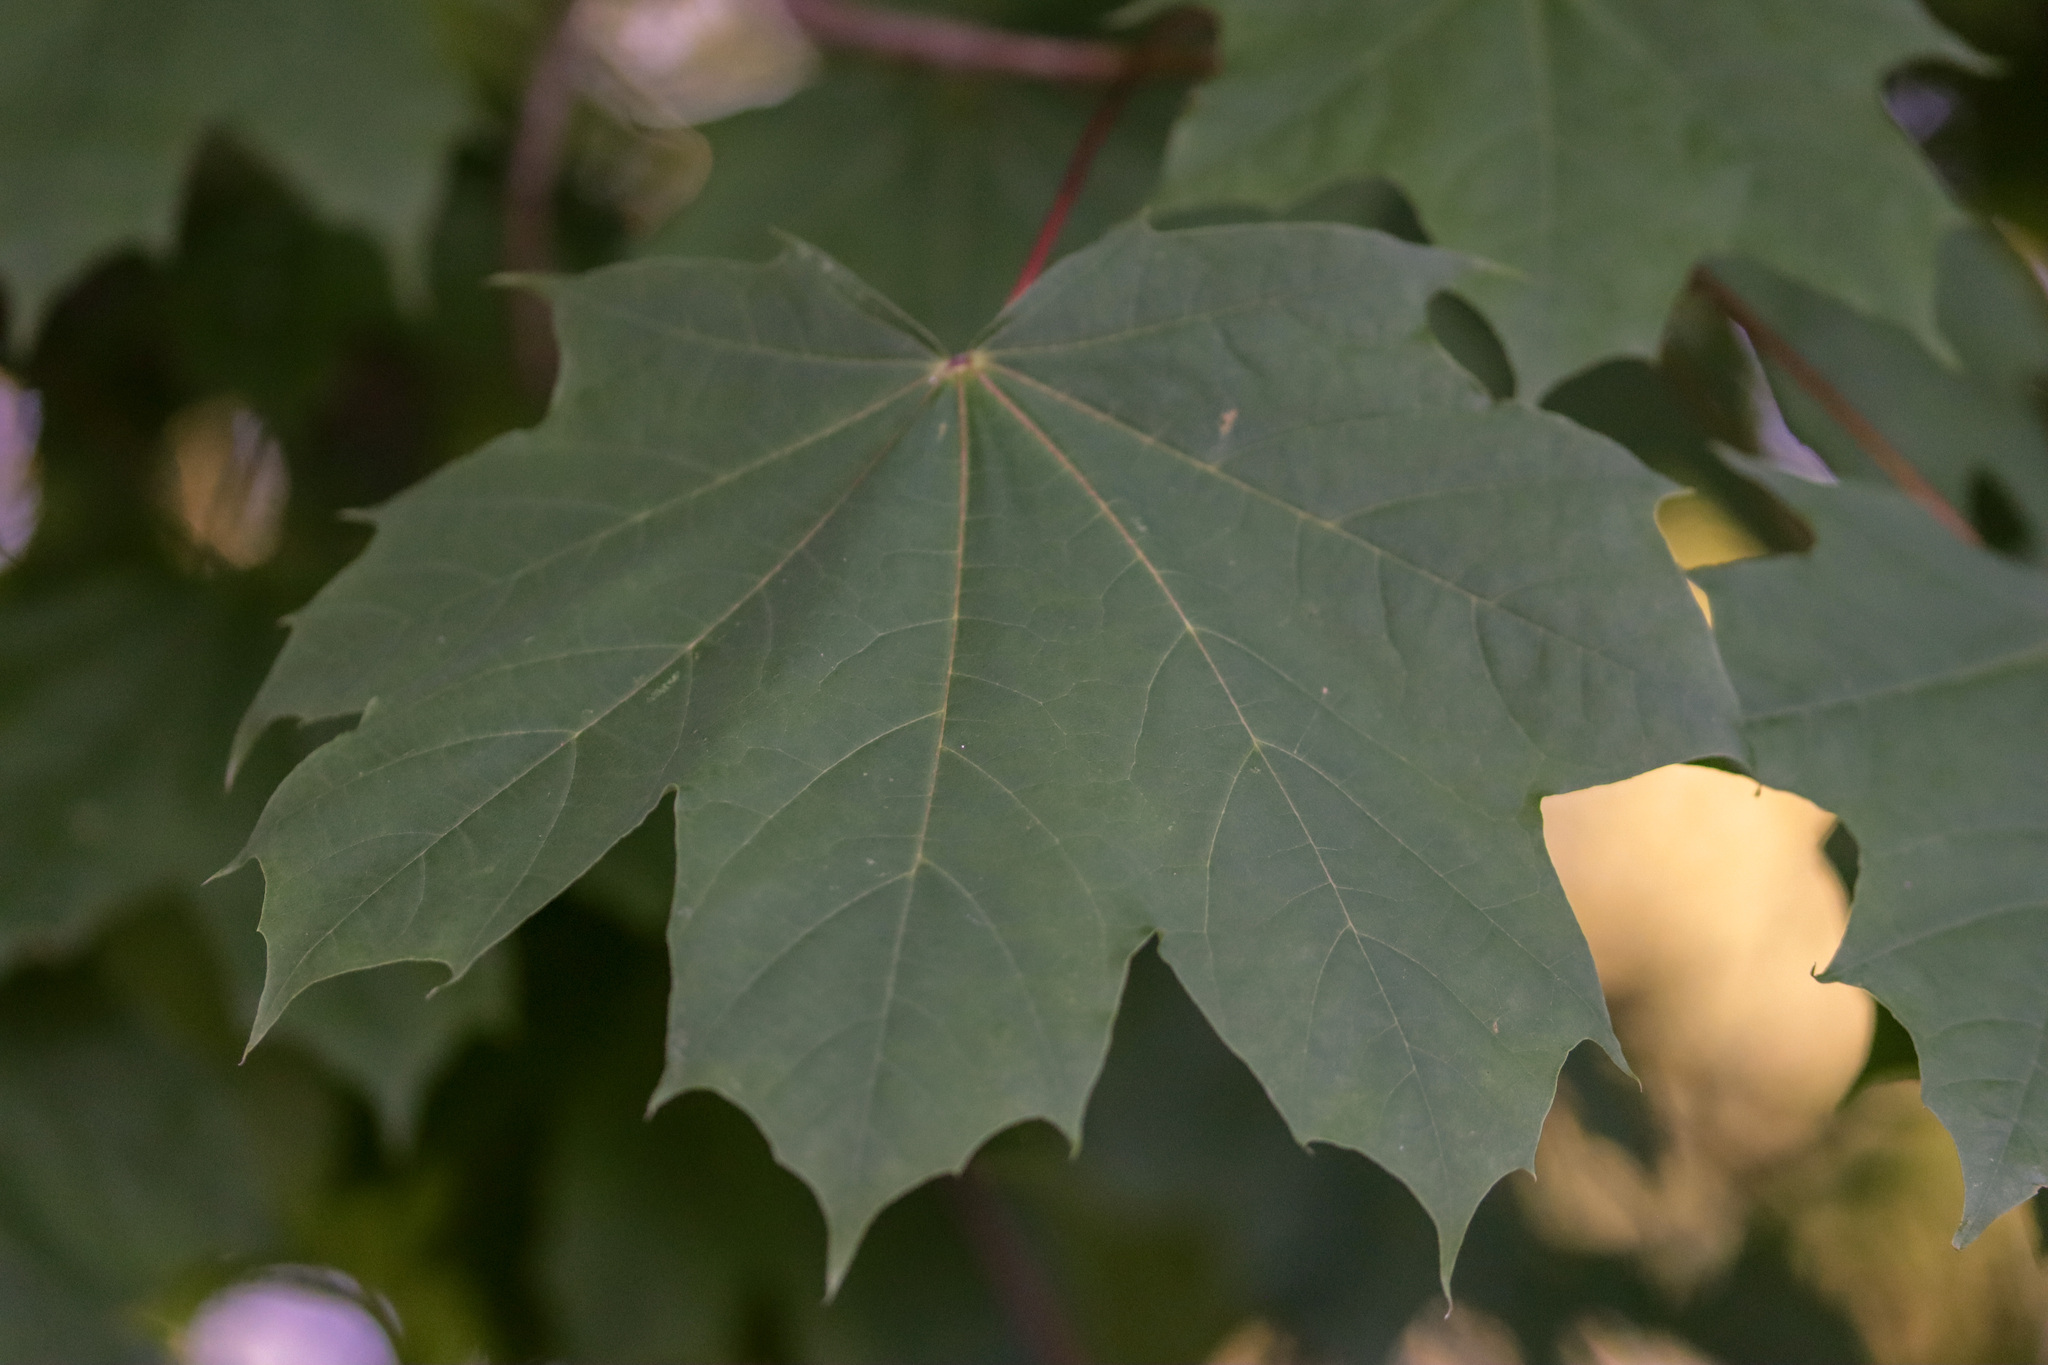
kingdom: Plantae
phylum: Tracheophyta
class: Magnoliopsida
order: Sapindales
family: Sapindaceae
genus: Acer
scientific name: Acer platanoides
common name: Norway maple
